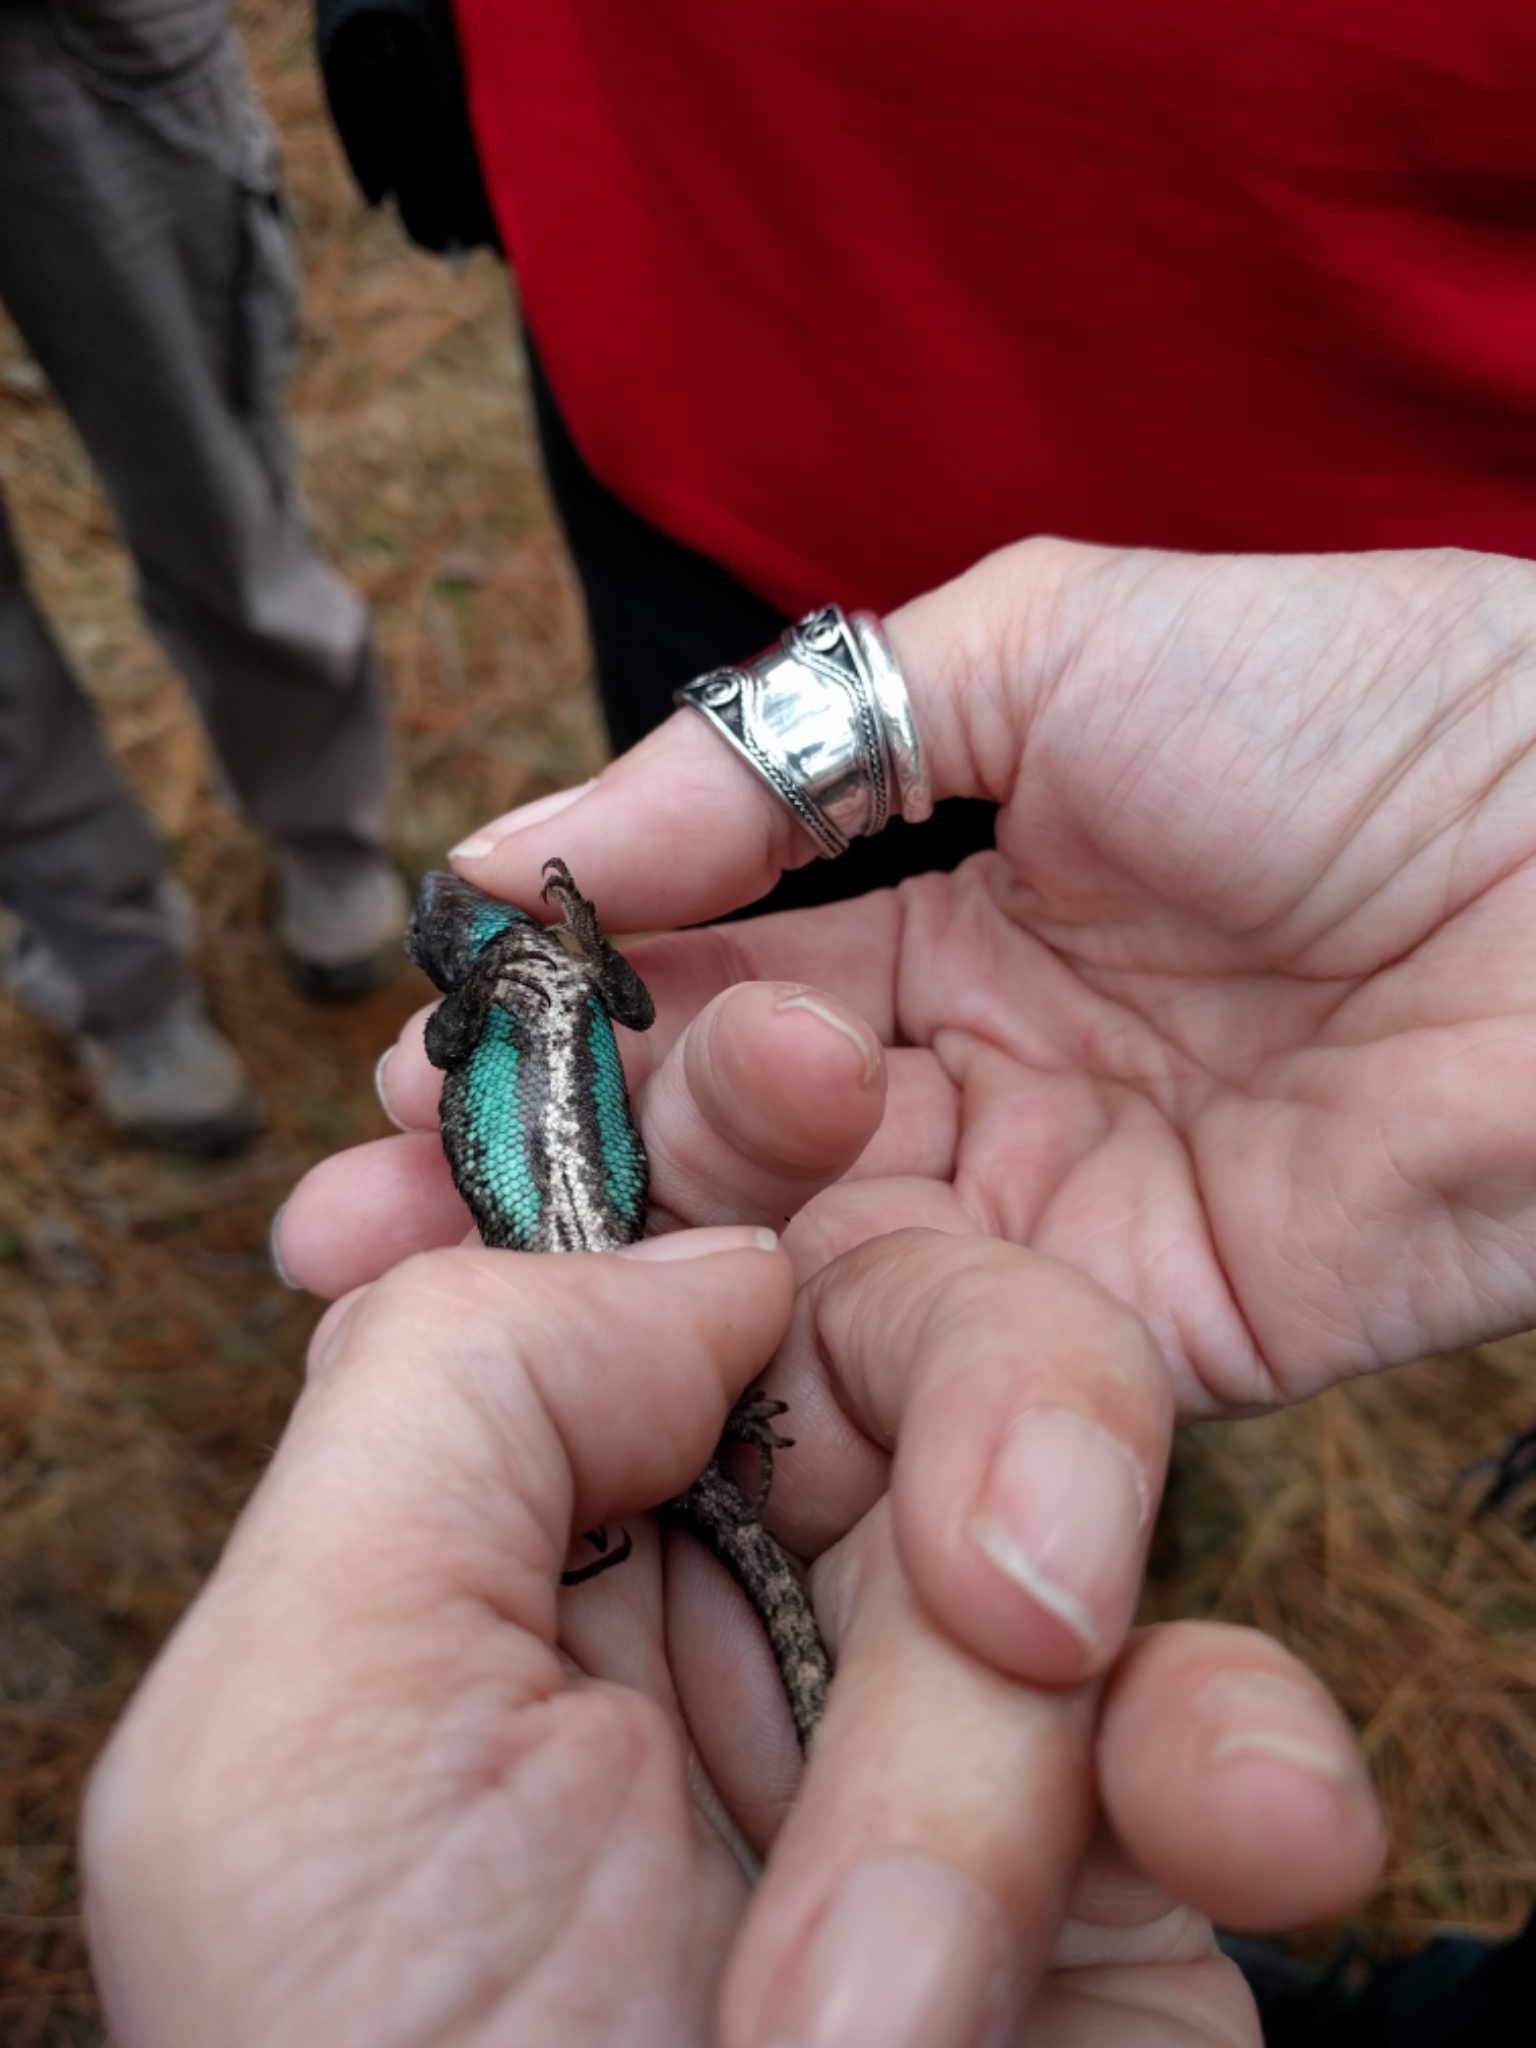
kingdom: Animalia
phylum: Chordata
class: Squamata
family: Phrynosomatidae
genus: Sceloporus
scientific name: Sceloporus consobrinus
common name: Southern prairie lizard
